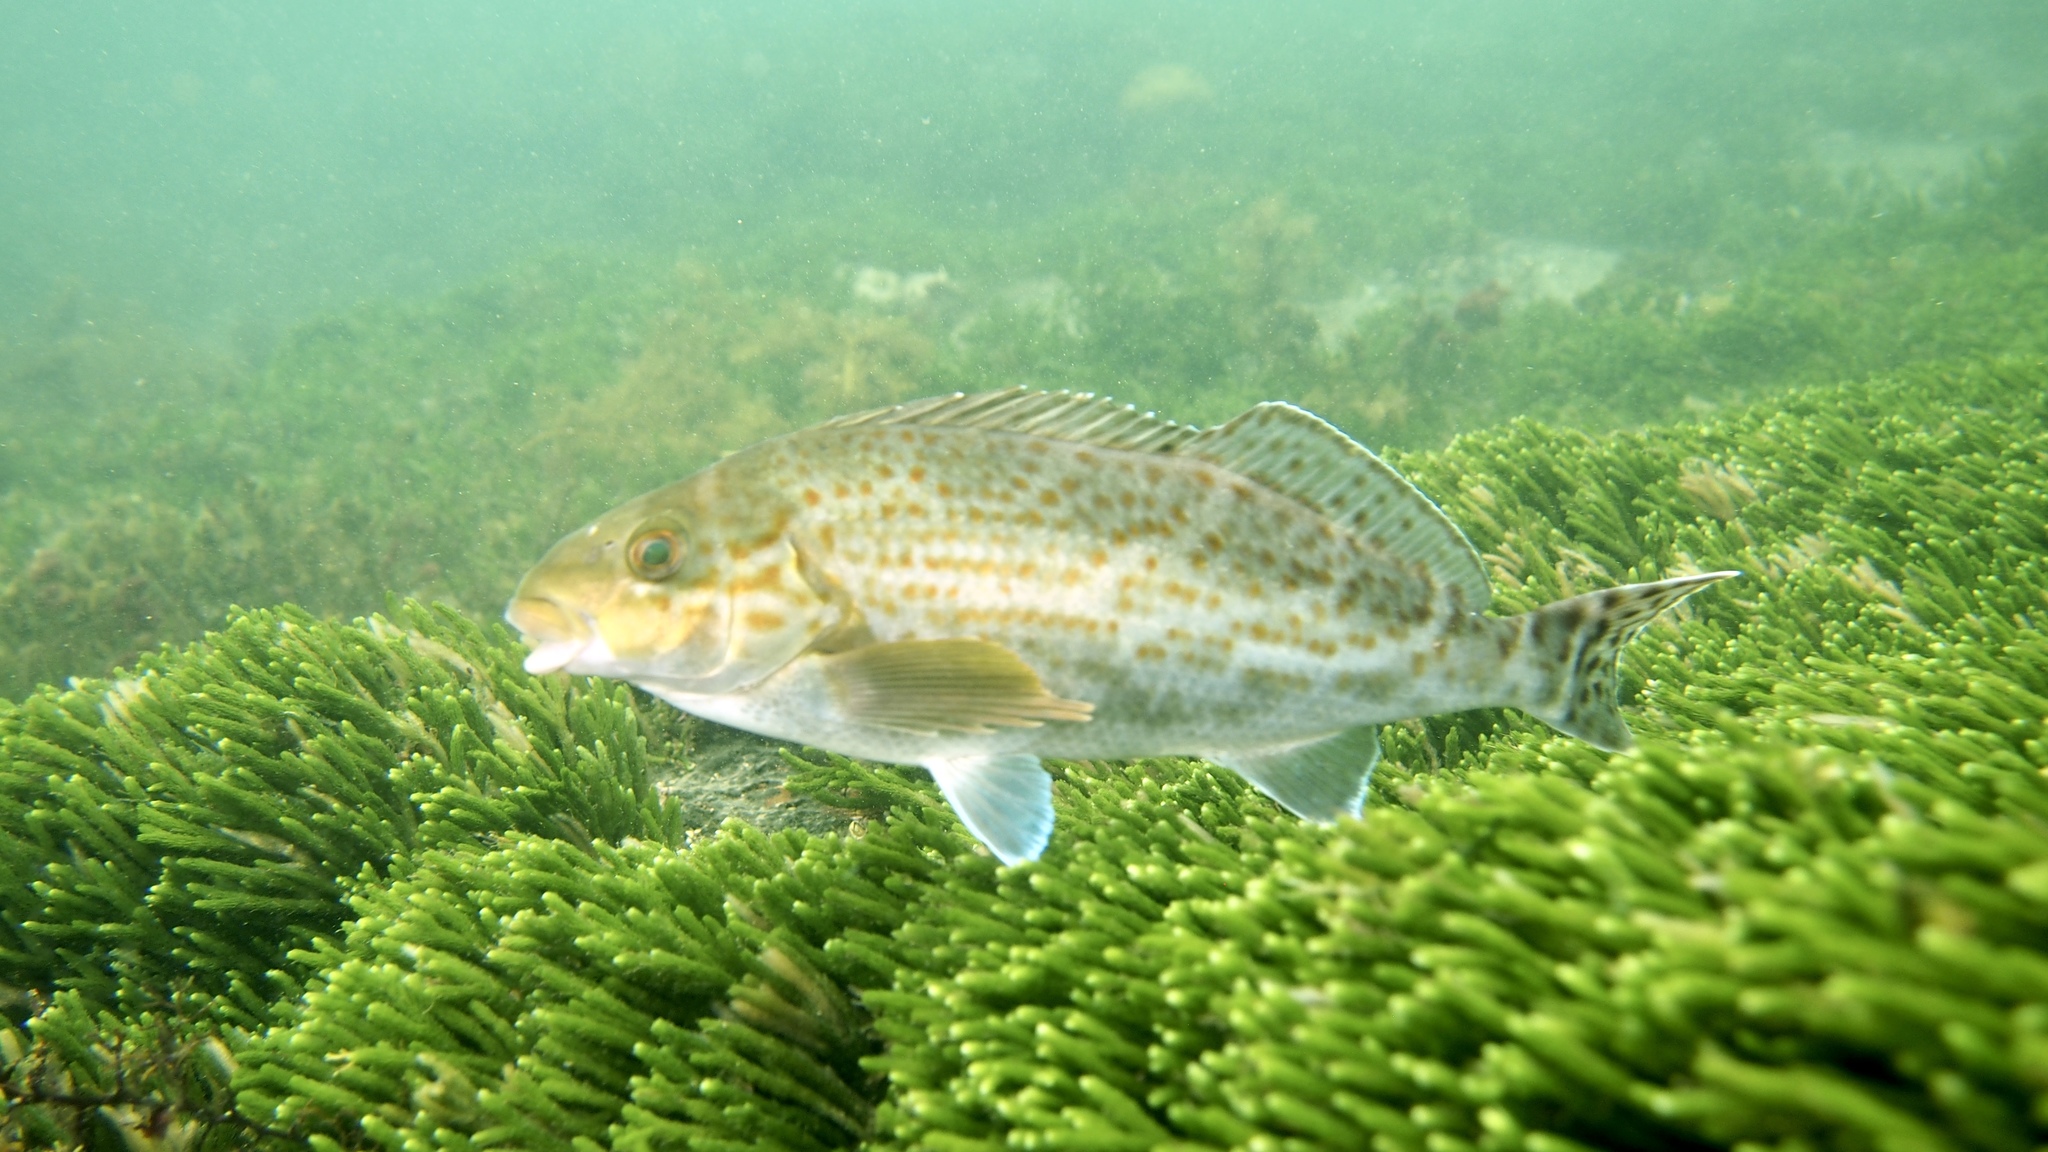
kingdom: Animalia
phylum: Chordata
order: Perciformes
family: Cheilodactylidae
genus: Dactylophora
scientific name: Dactylophora nigricans
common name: Dusky morwong
